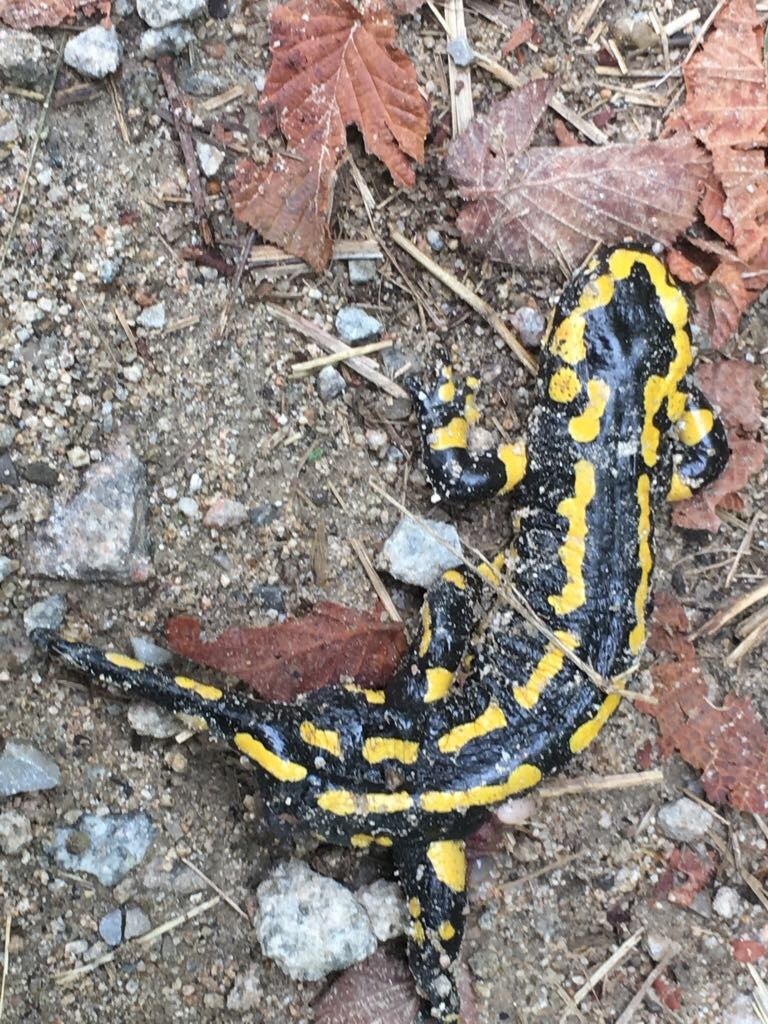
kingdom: Animalia
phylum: Chordata
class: Amphibia
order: Caudata
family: Salamandridae
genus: Salamandra
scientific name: Salamandra salamandra
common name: Fire salamander
